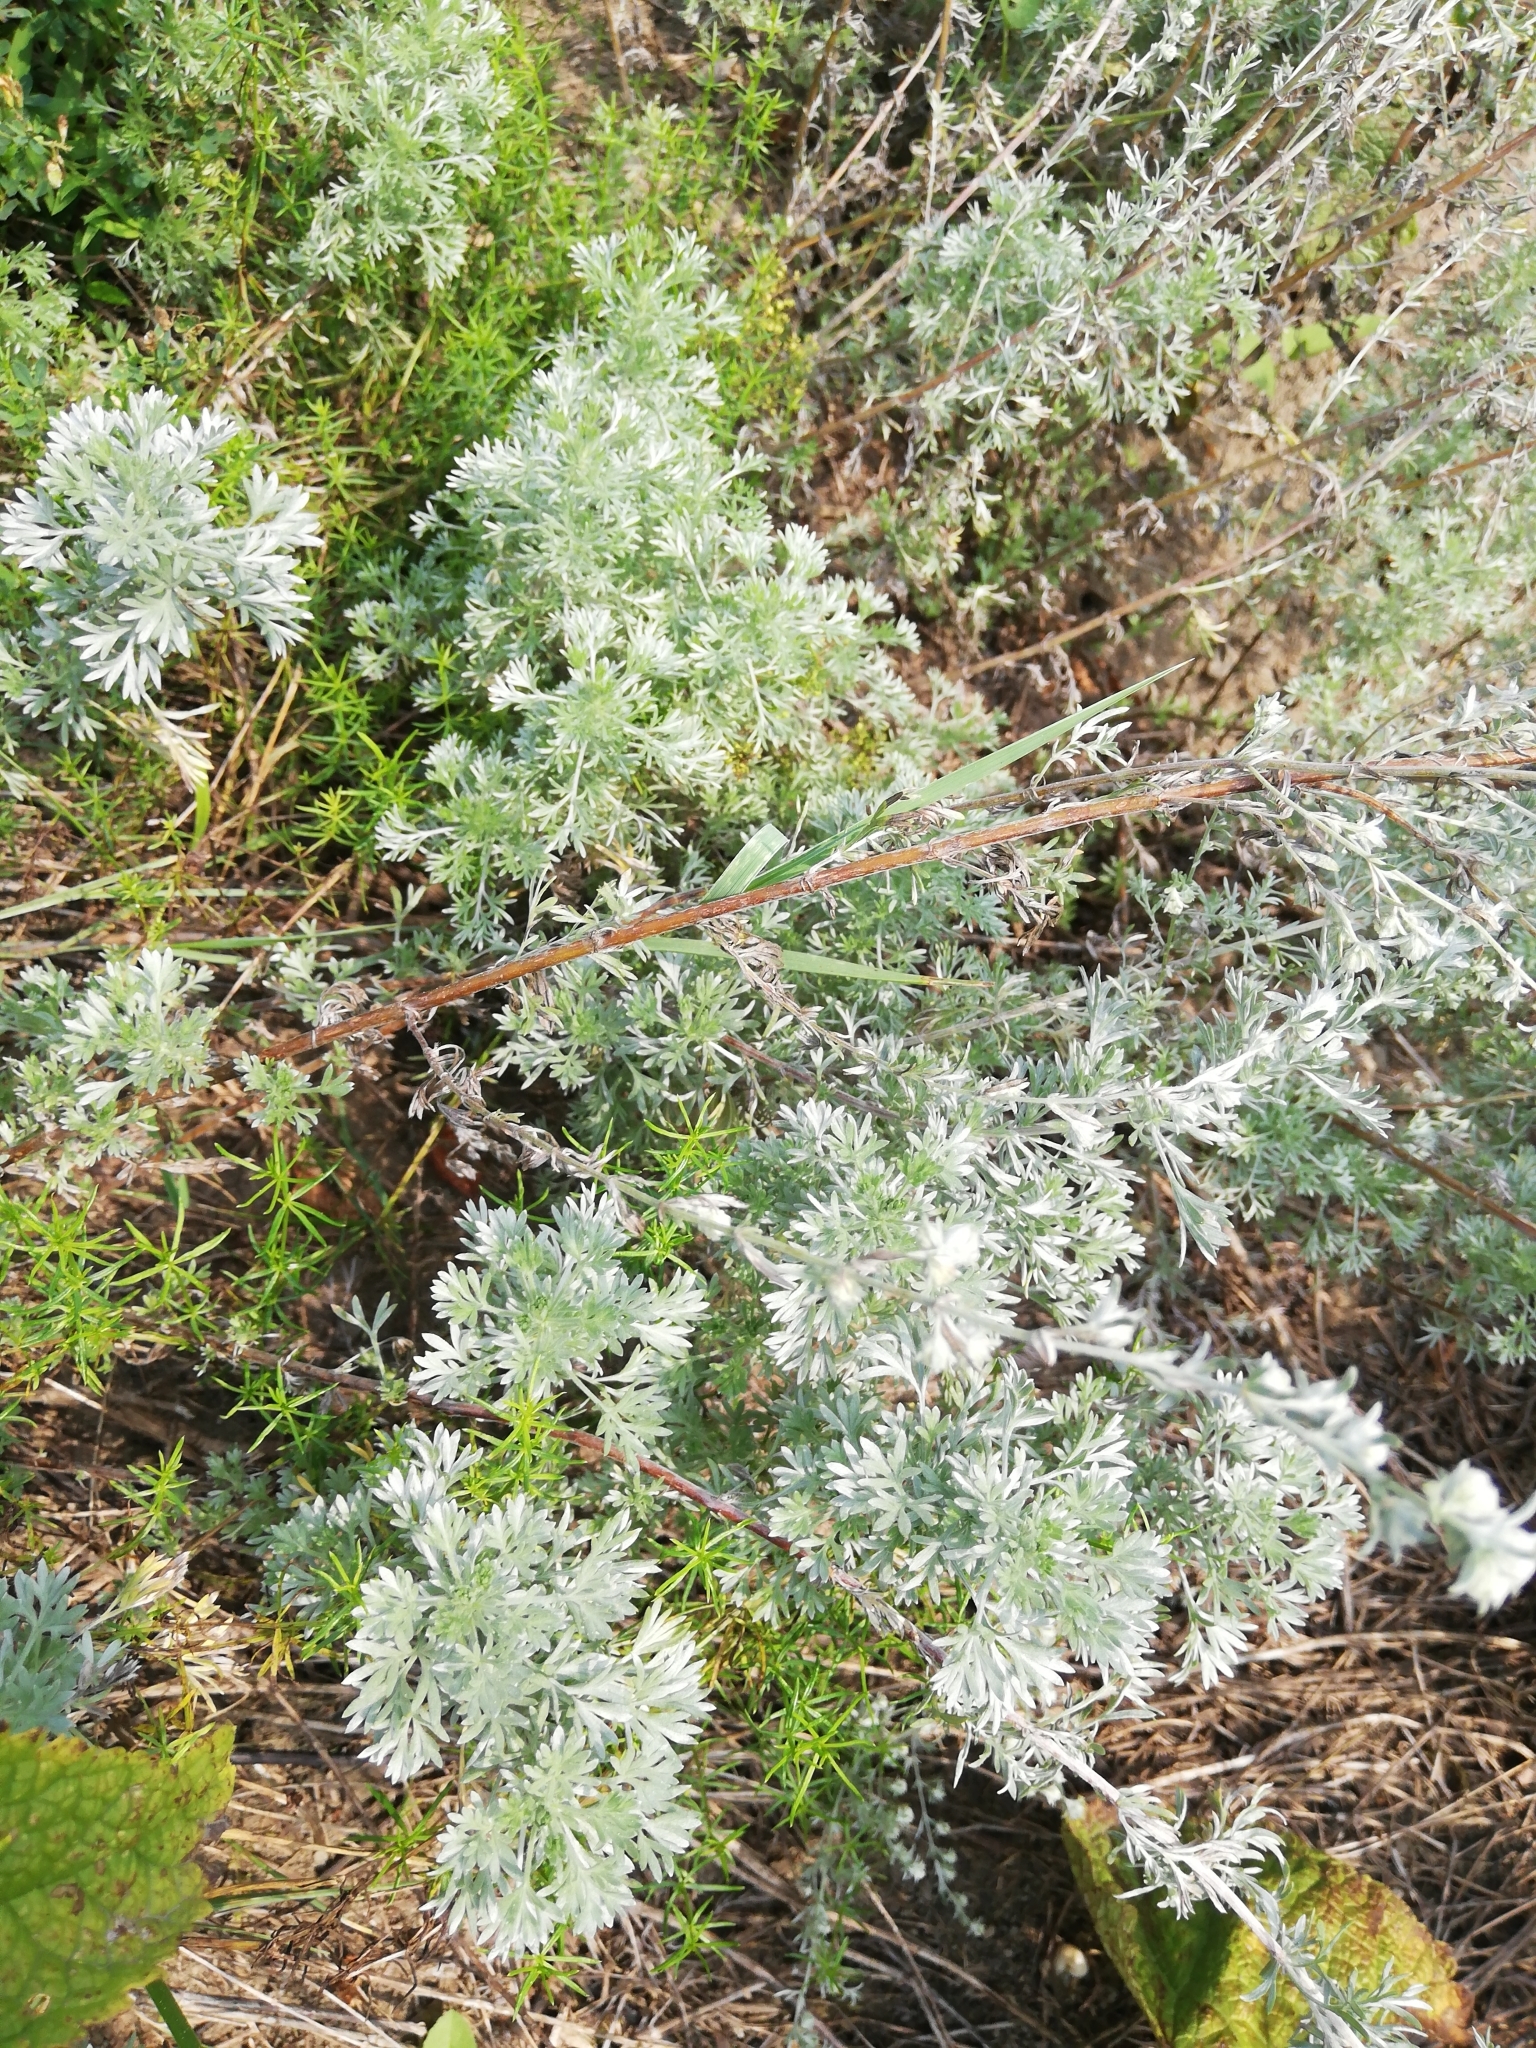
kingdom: Plantae
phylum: Tracheophyta
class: Magnoliopsida
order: Asterales
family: Asteraceae
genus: Artemisia
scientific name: Artemisia frigida
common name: Prairie sagewort
